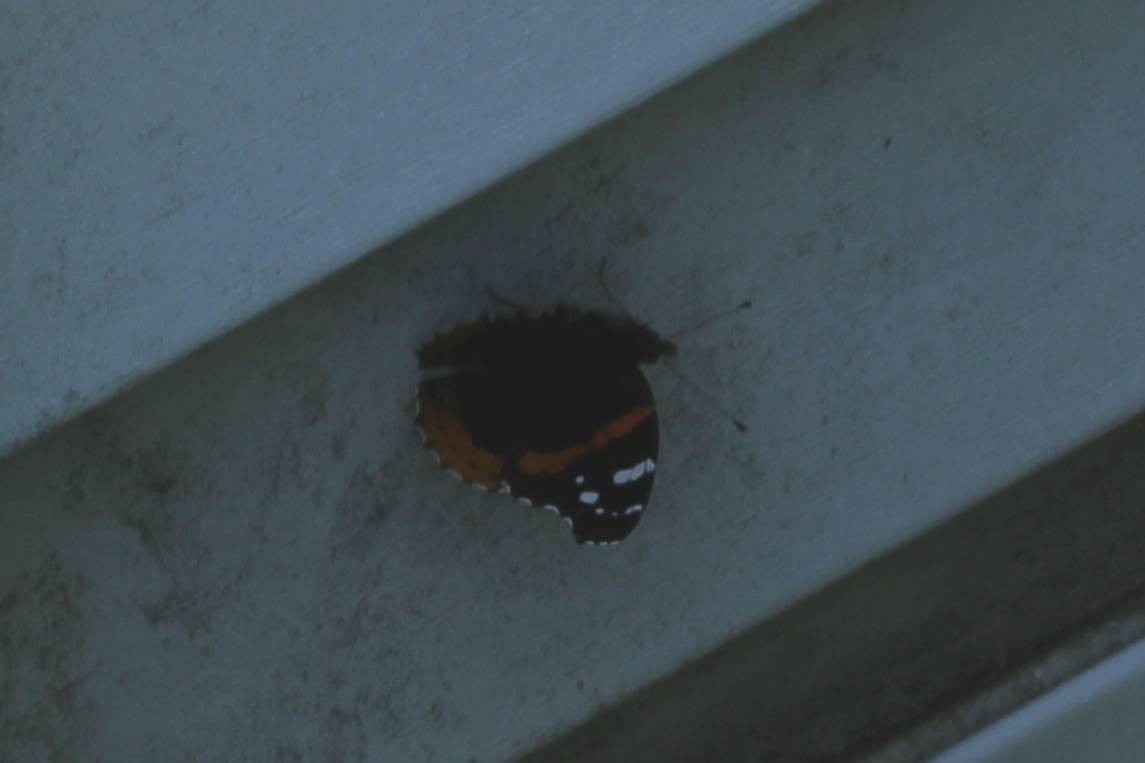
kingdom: Animalia
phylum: Arthropoda
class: Insecta
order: Lepidoptera
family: Nymphalidae
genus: Vanessa
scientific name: Vanessa atalanta
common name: Red admiral
